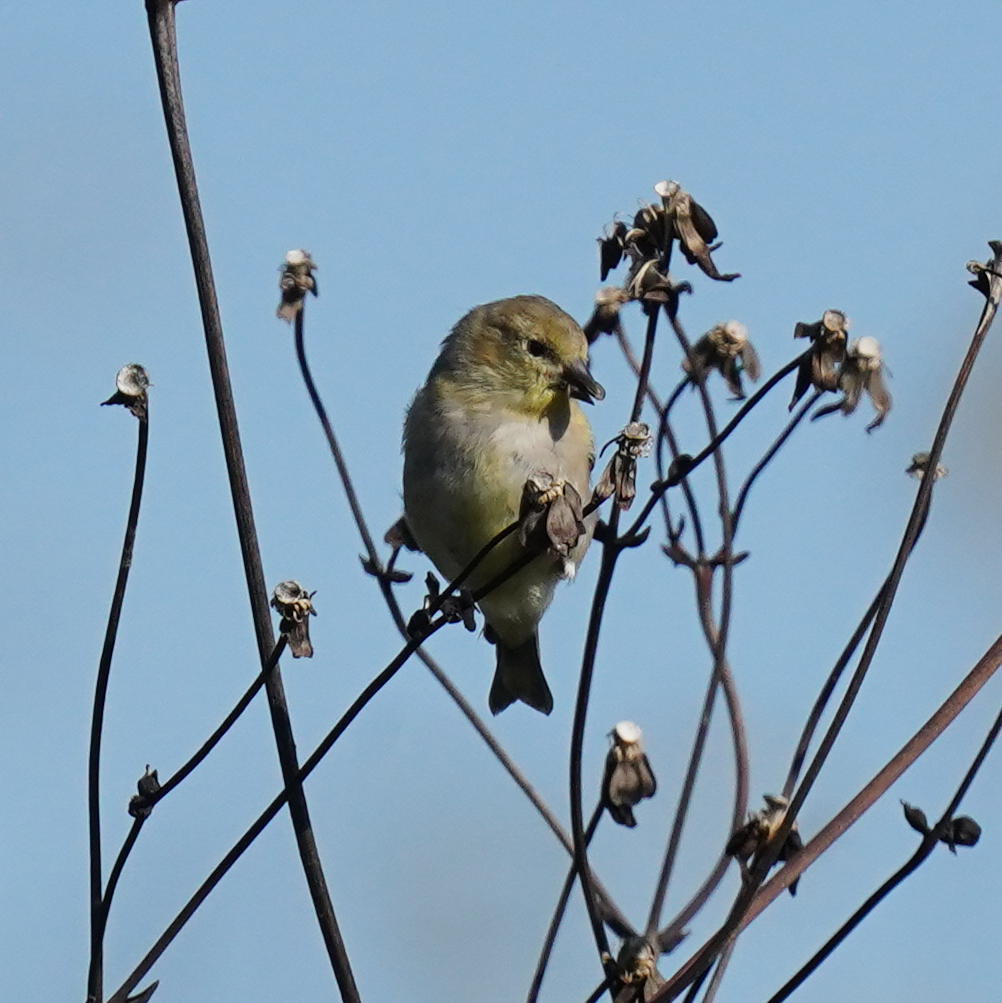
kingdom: Animalia
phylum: Chordata
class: Aves
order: Passeriformes
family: Fringillidae
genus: Spinus
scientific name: Spinus tristis
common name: American goldfinch
